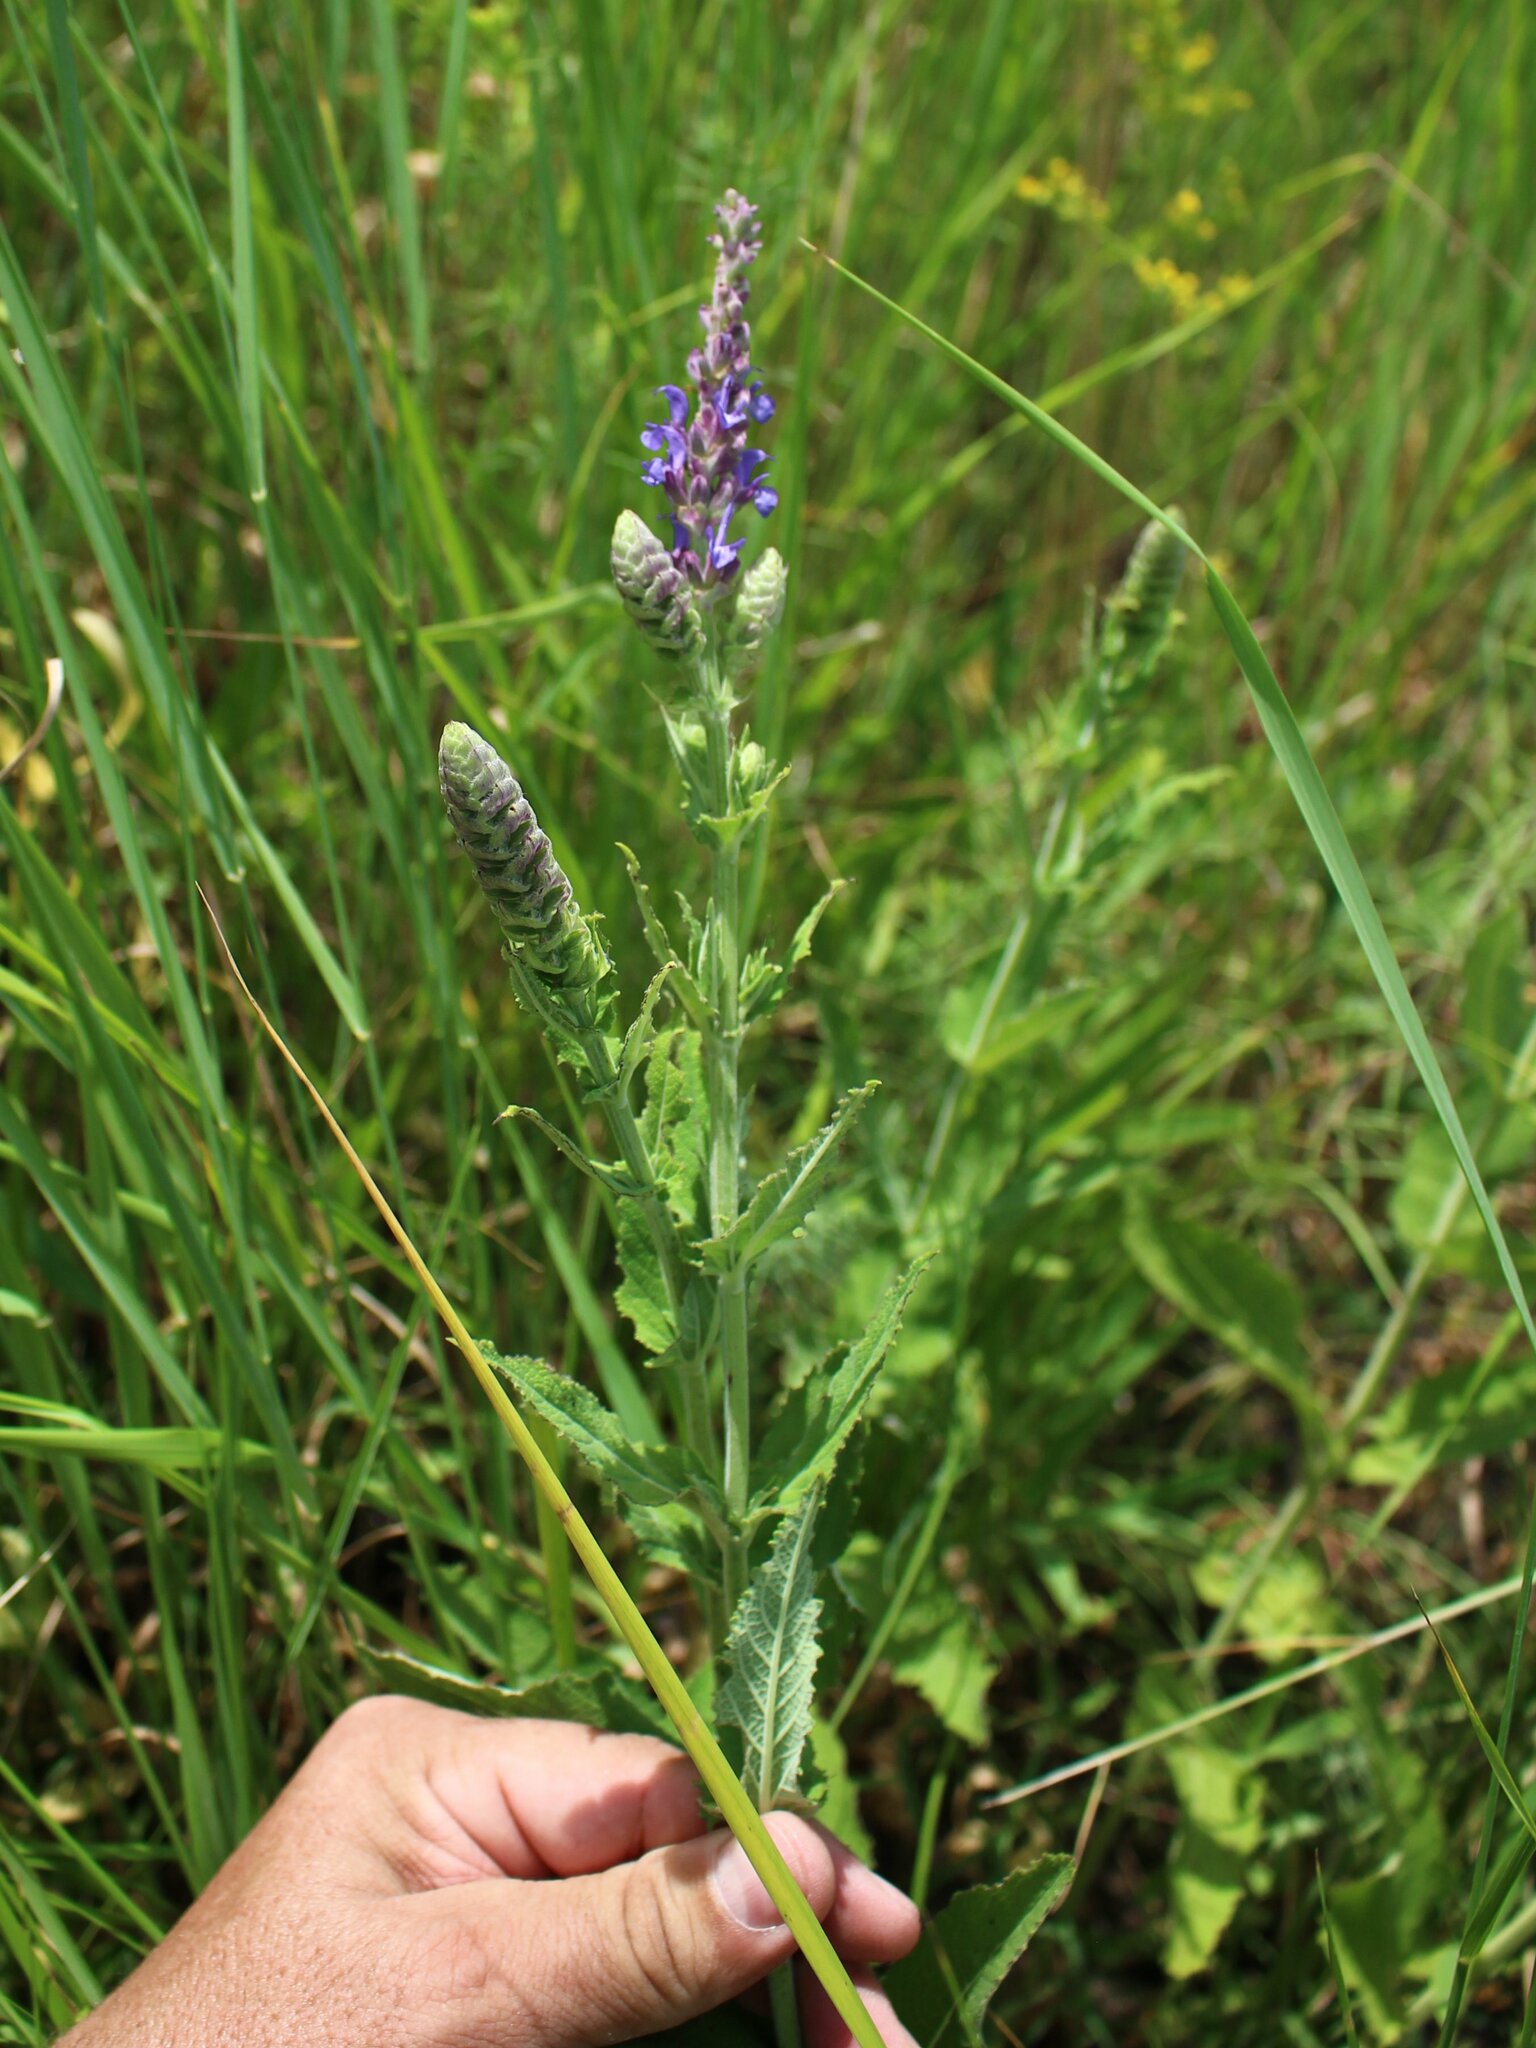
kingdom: Plantae
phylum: Tracheophyta
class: Magnoliopsida
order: Lamiales
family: Lamiaceae
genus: Salvia
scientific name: Salvia nemorosa
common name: Balkan clary
